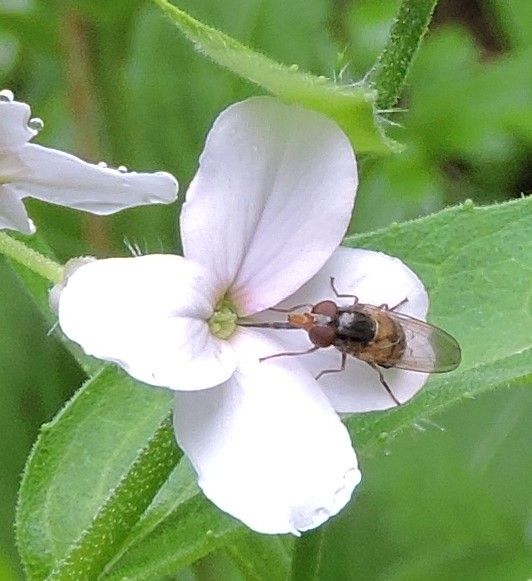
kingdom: Animalia
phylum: Arthropoda
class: Insecta
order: Diptera
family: Syrphidae
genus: Rhingia
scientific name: Rhingia nasica
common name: American snout fly
